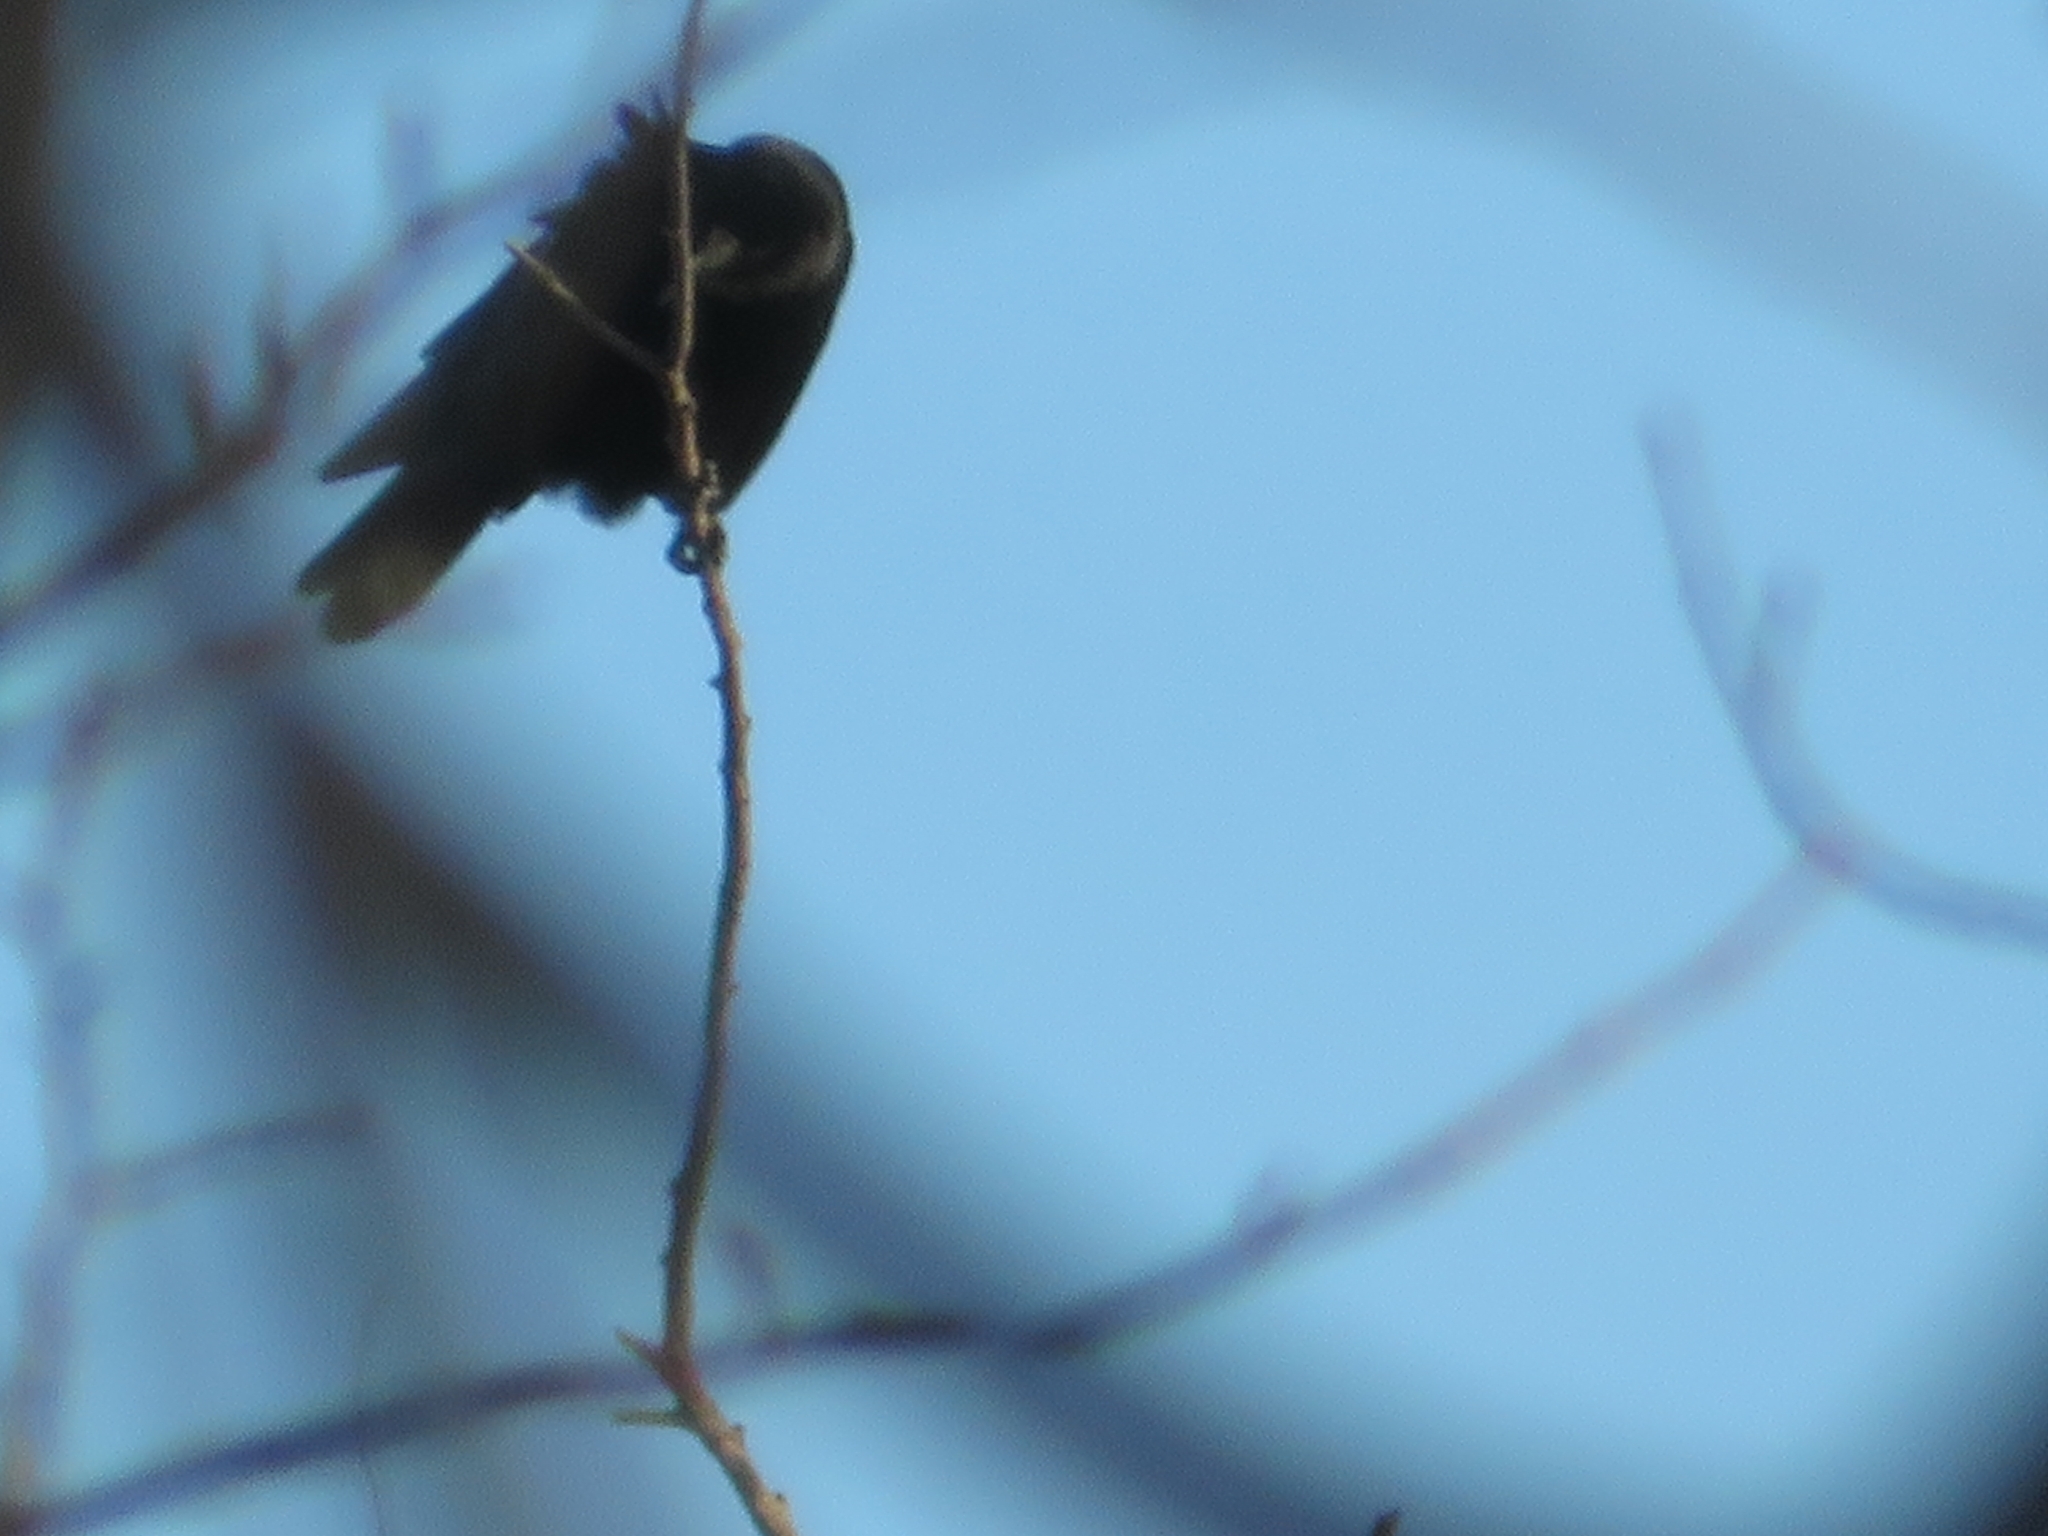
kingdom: Animalia
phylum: Chordata
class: Aves
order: Passeriformes
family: Corvidae
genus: Corvus
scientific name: Corvus brachyrhynchos
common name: American crow
